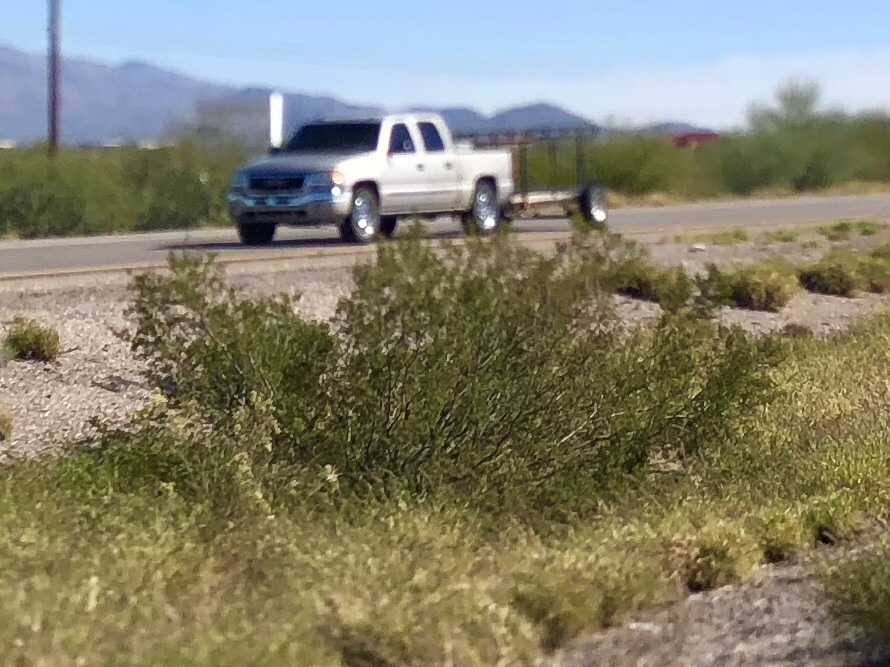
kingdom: Plantae
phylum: Tracheophyta
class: Magnoliopsida
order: Zygophyllales
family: Zygophyllaceae
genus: Larrea
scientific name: Larrea tridentata
